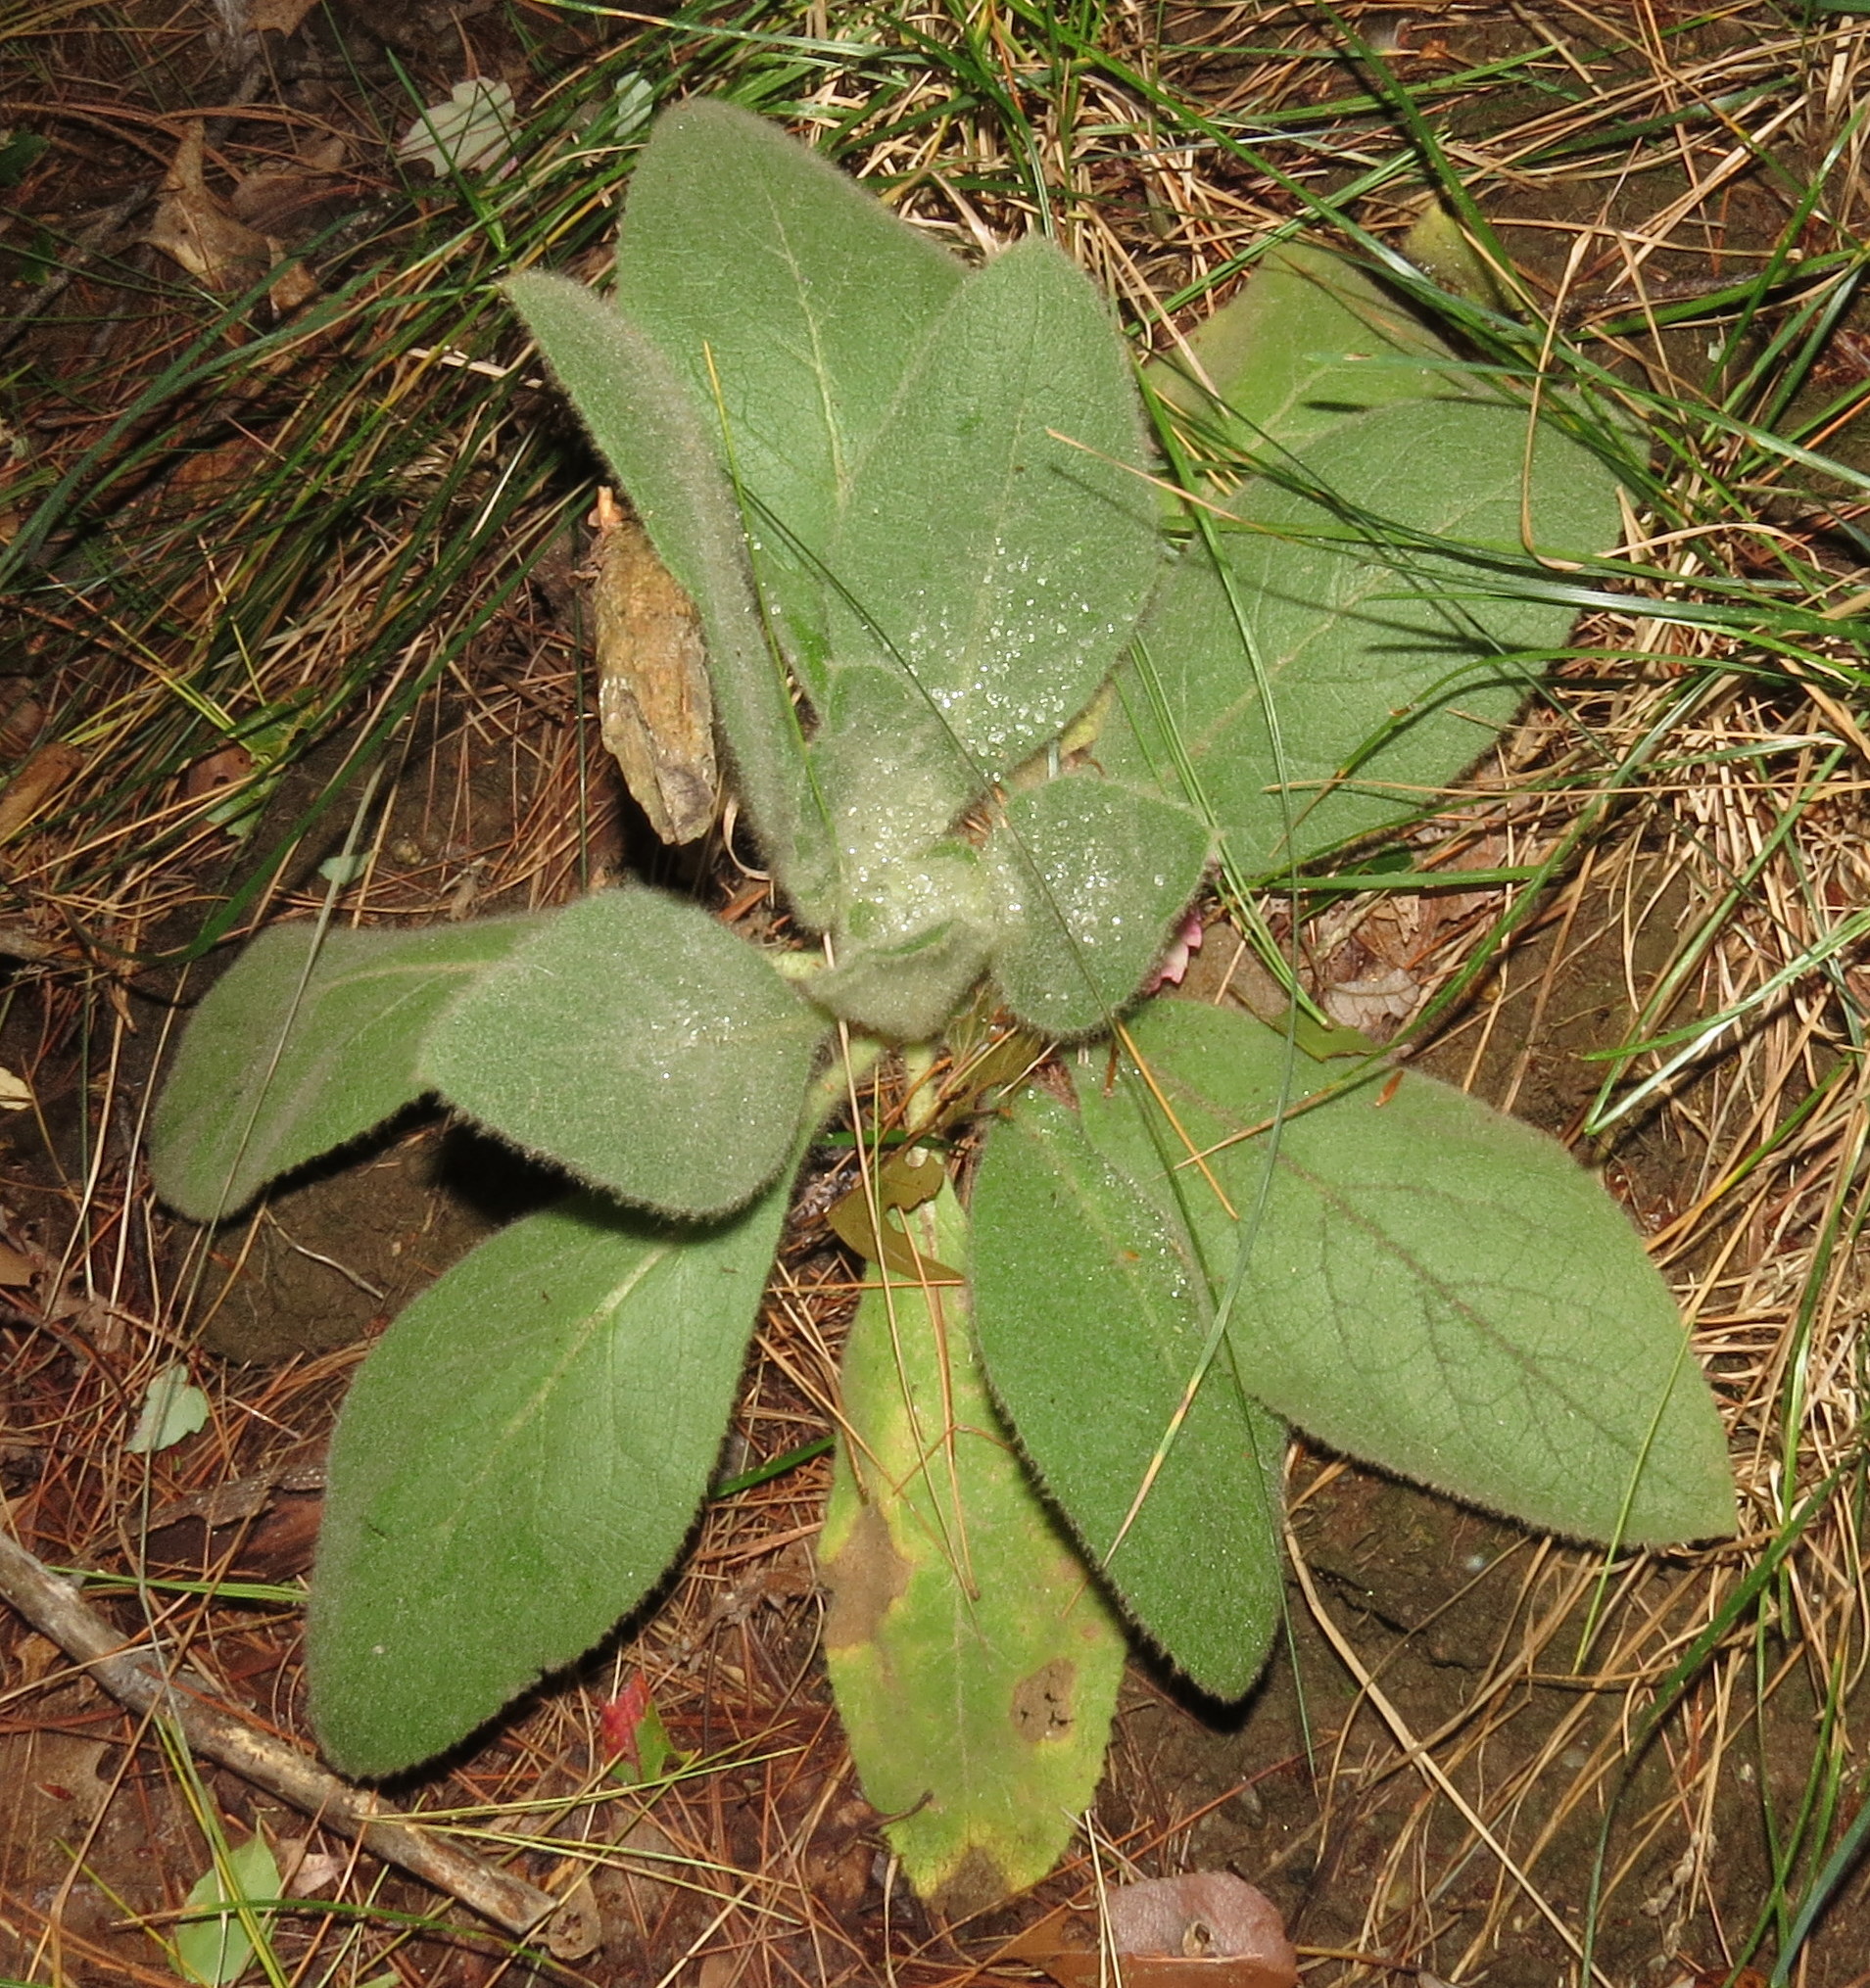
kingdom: Plantae
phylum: Tracheophyta
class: Magnoliopsida
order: Lamiales
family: Scrophulariaceae
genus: Verbascum
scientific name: Verbascum thapsus
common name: Common mullein
